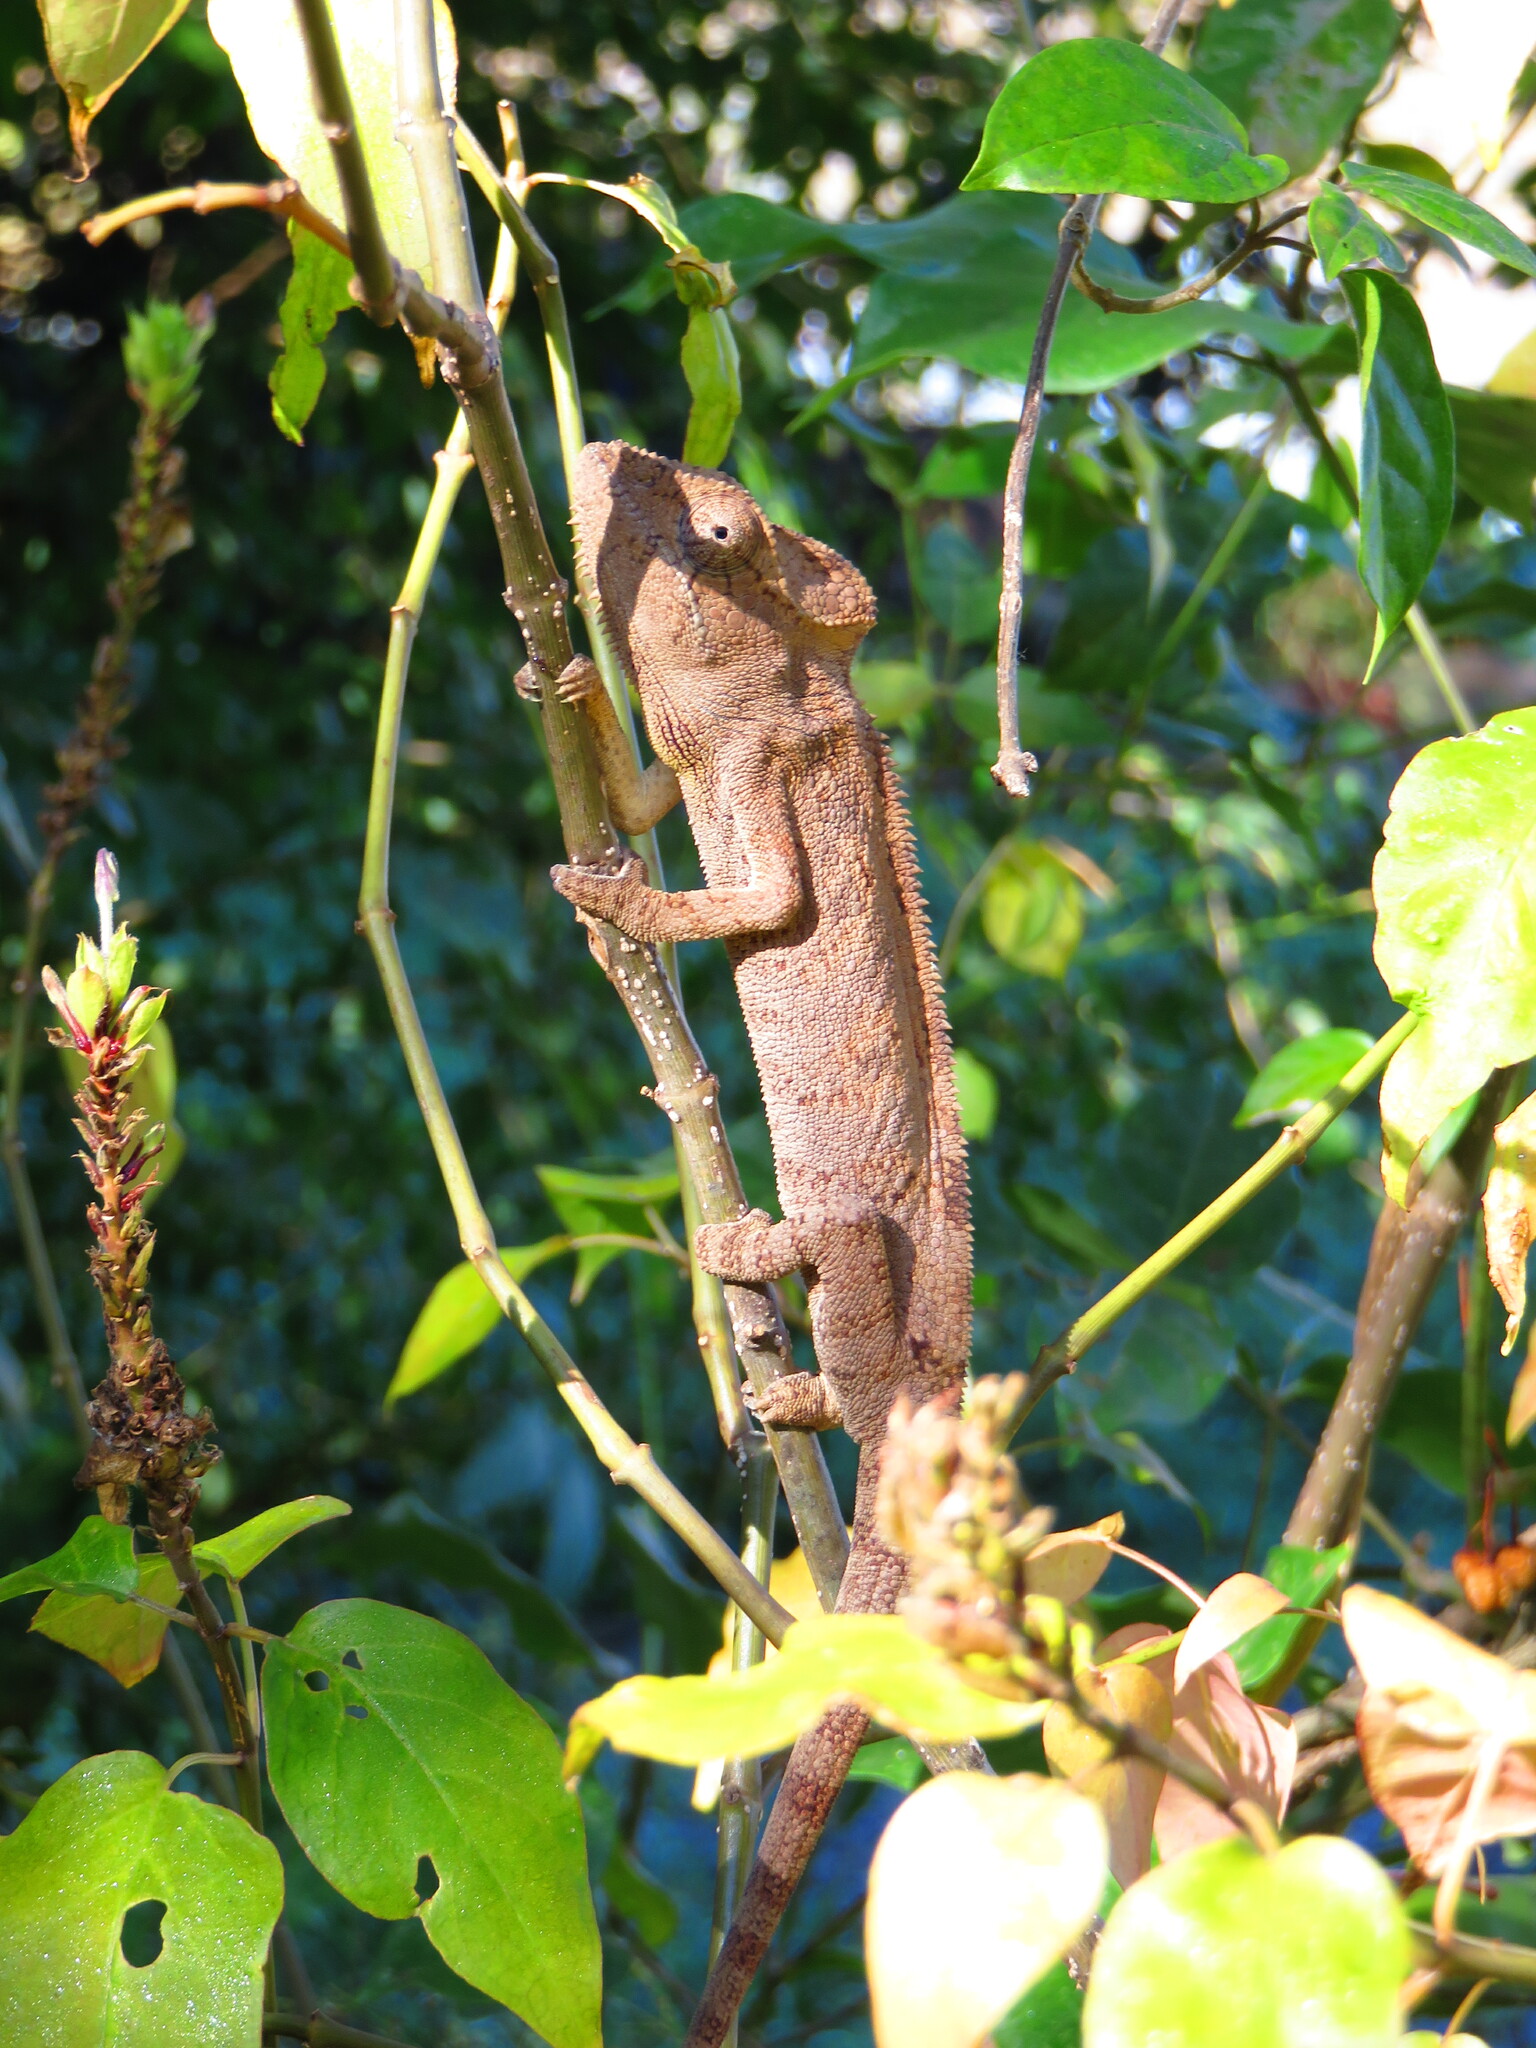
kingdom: Animalia
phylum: Chordata
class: Squamata
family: Chamaeleonidae
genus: Furcifer
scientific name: Furcifer oustaleti
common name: Oustalet's chameleon
